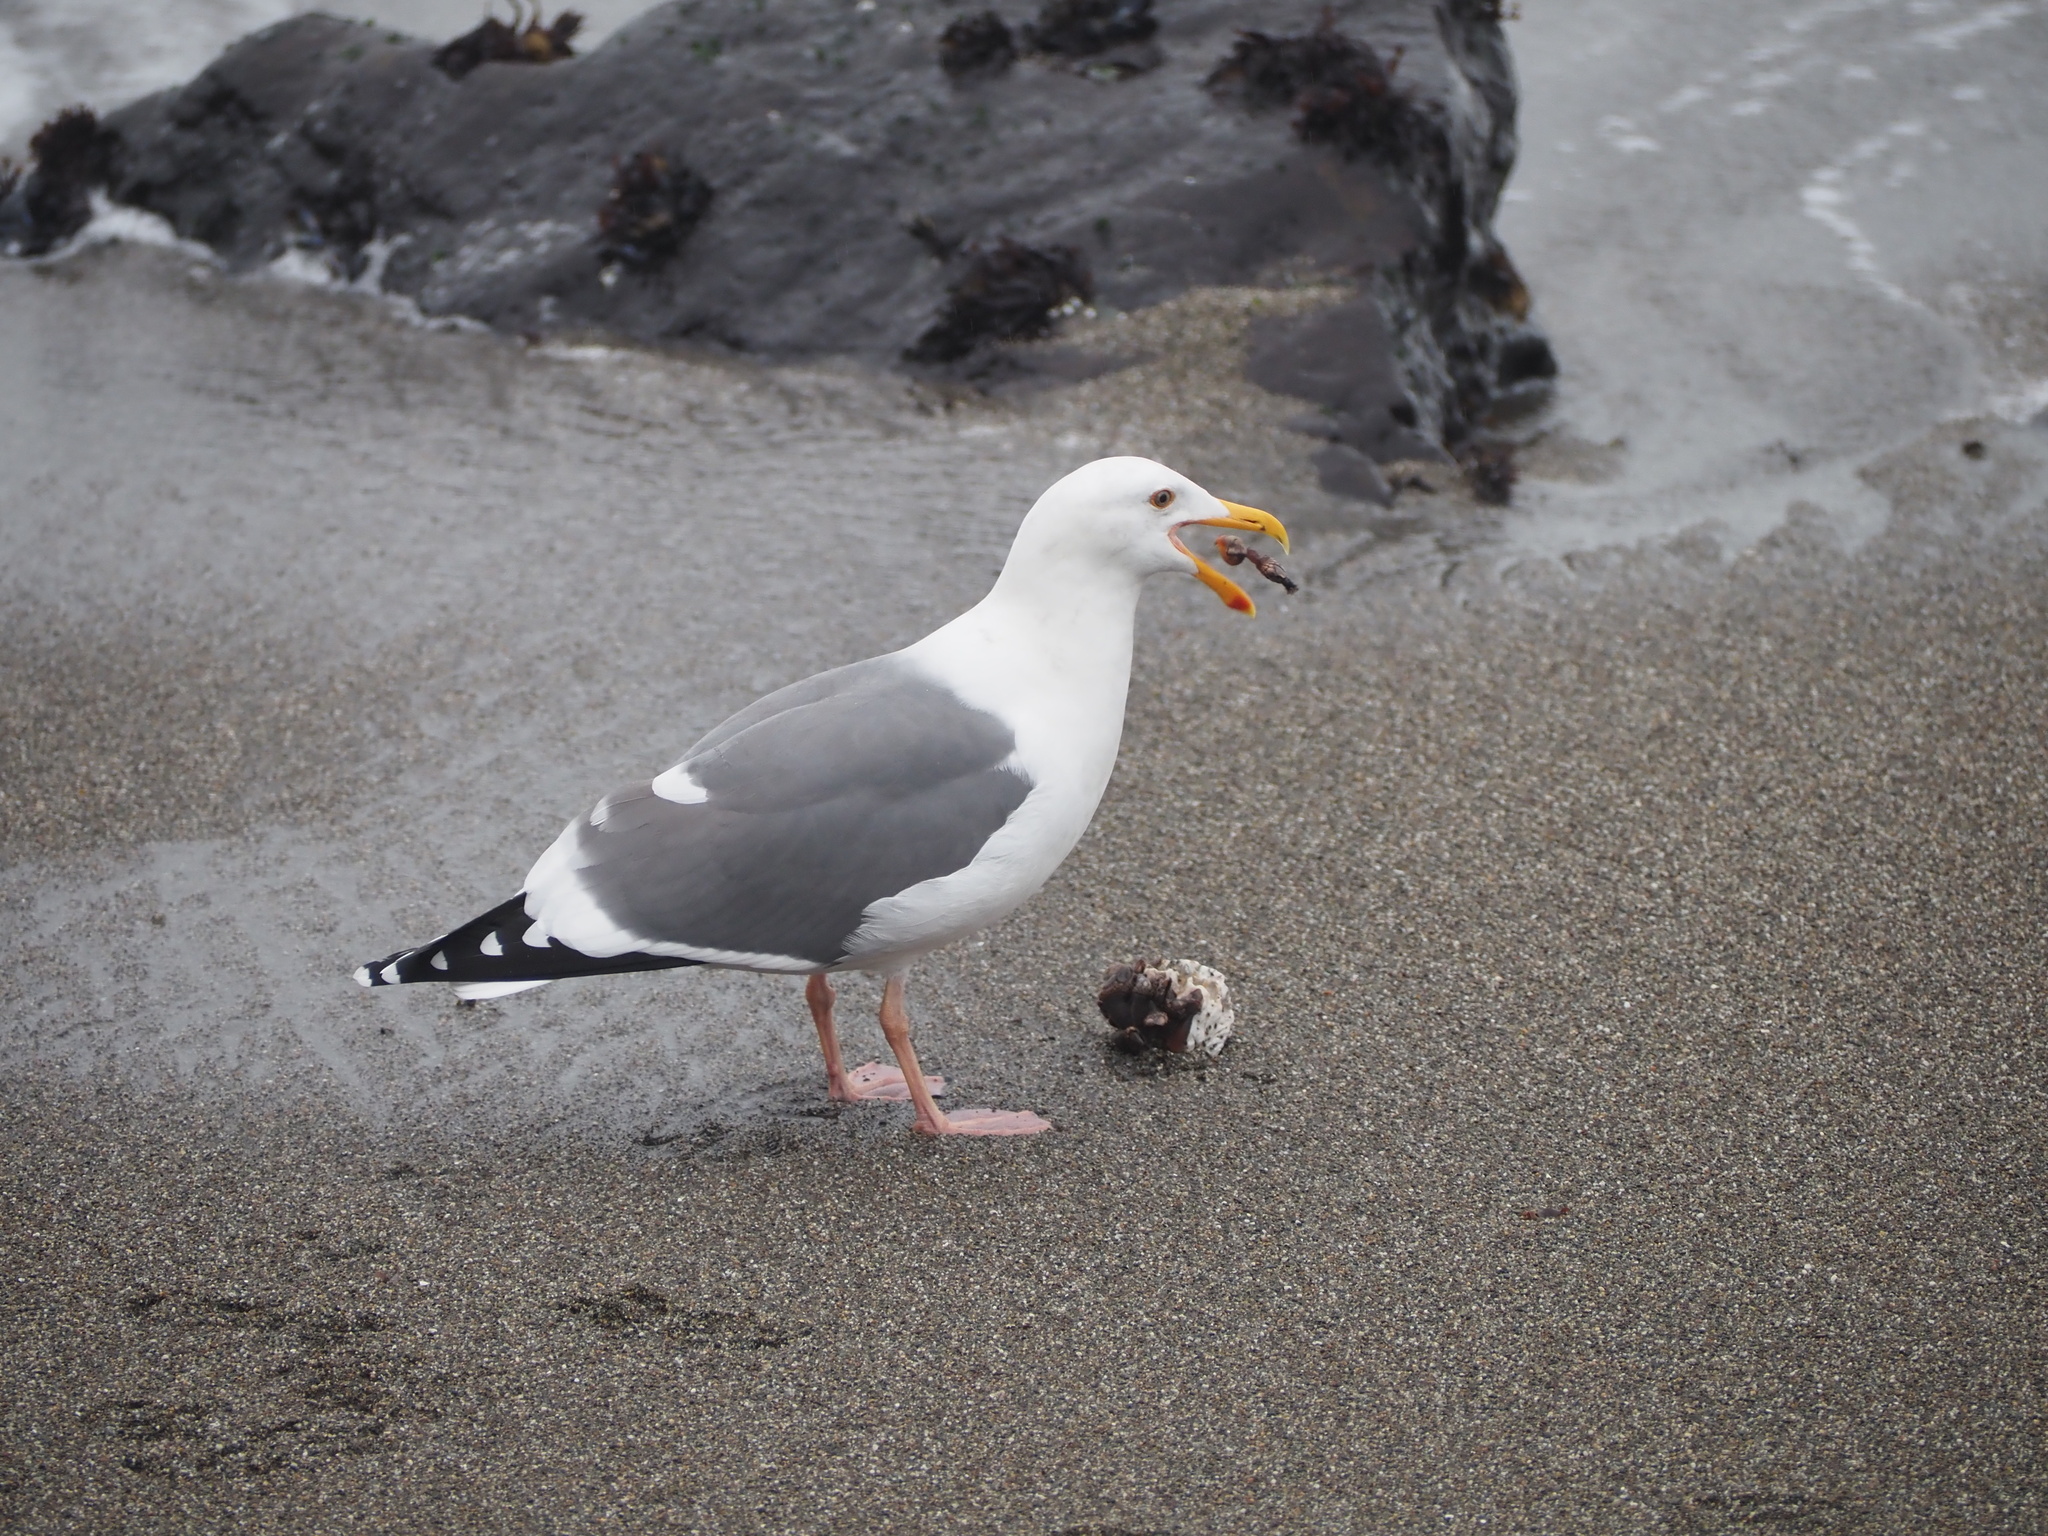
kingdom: Animalia
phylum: Chordata
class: Aves
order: Charadriiformes
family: Laridae
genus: Larus
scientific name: Larus occidentalis
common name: Western gull
